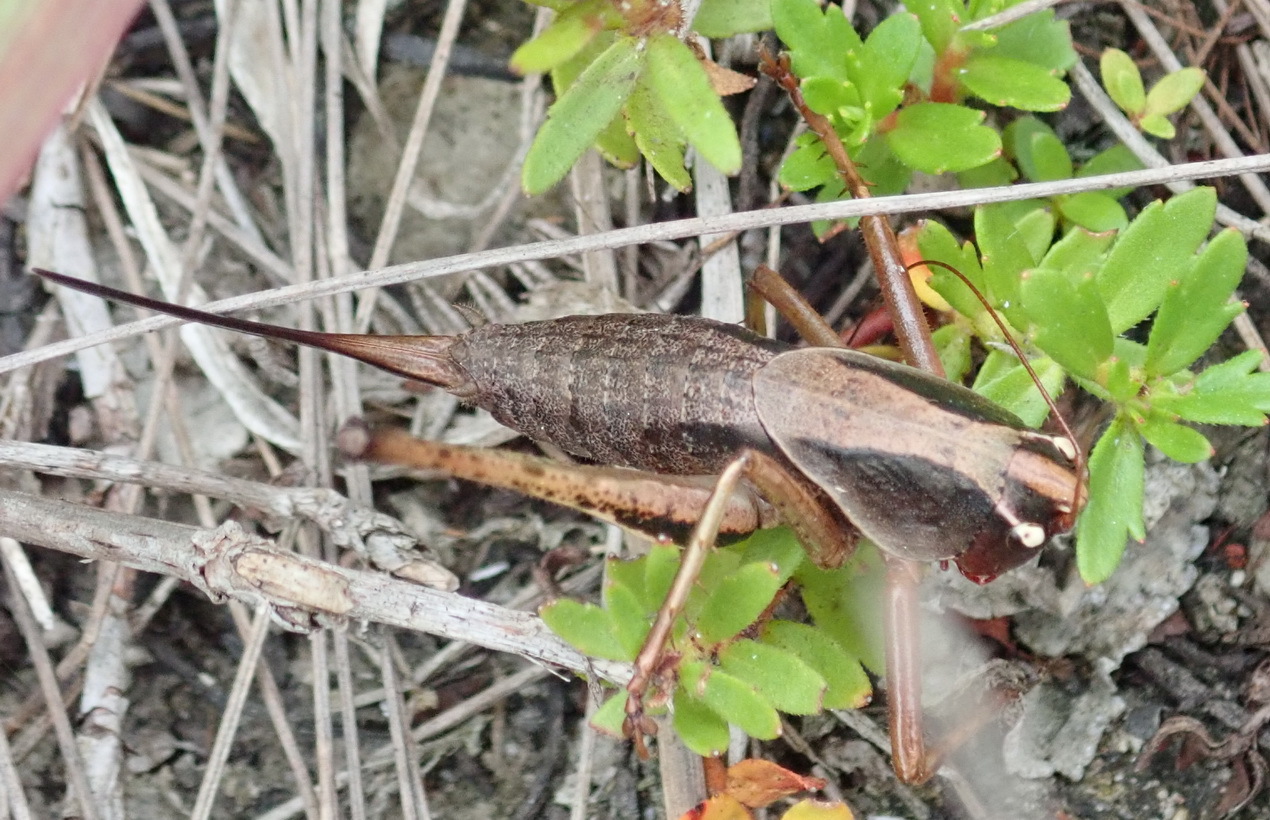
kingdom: Animalia
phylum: Arthropoda
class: Insecta
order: Orthoptera
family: Tettigoniidae
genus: Alfredectes
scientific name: Alfredectes semiaeneus
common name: Alfred's shieldback
